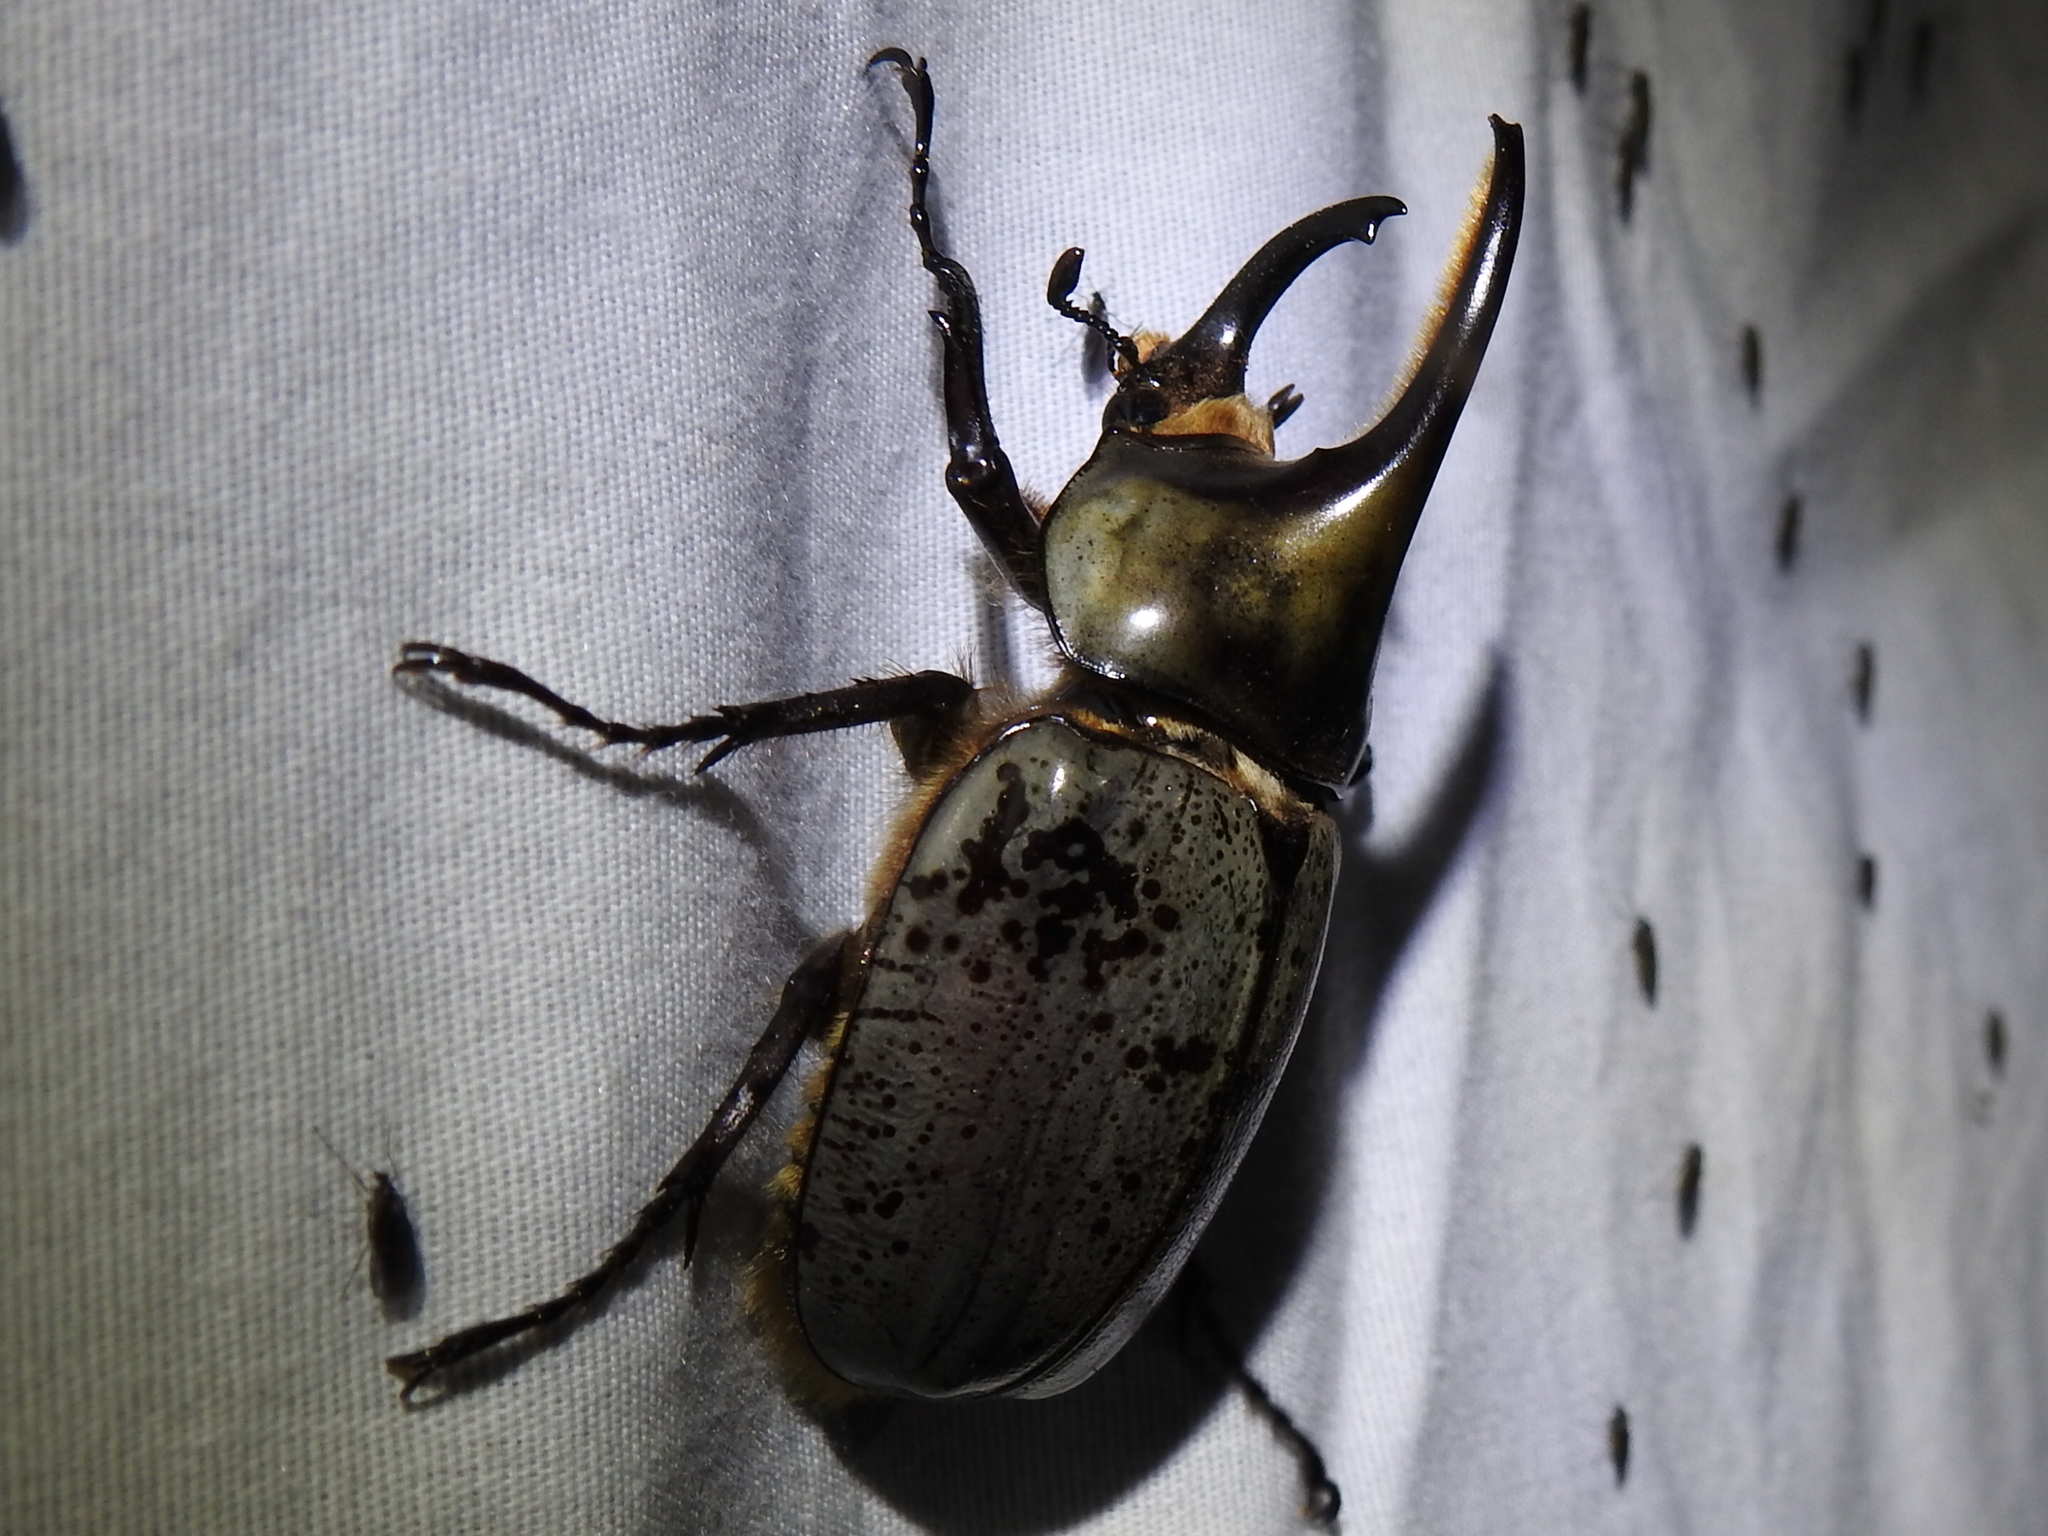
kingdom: Animalia
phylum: Arthropoda
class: Insecta
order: Coleoptera
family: Scarabaeidae
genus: Dynastes
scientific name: Dynastes grantii
